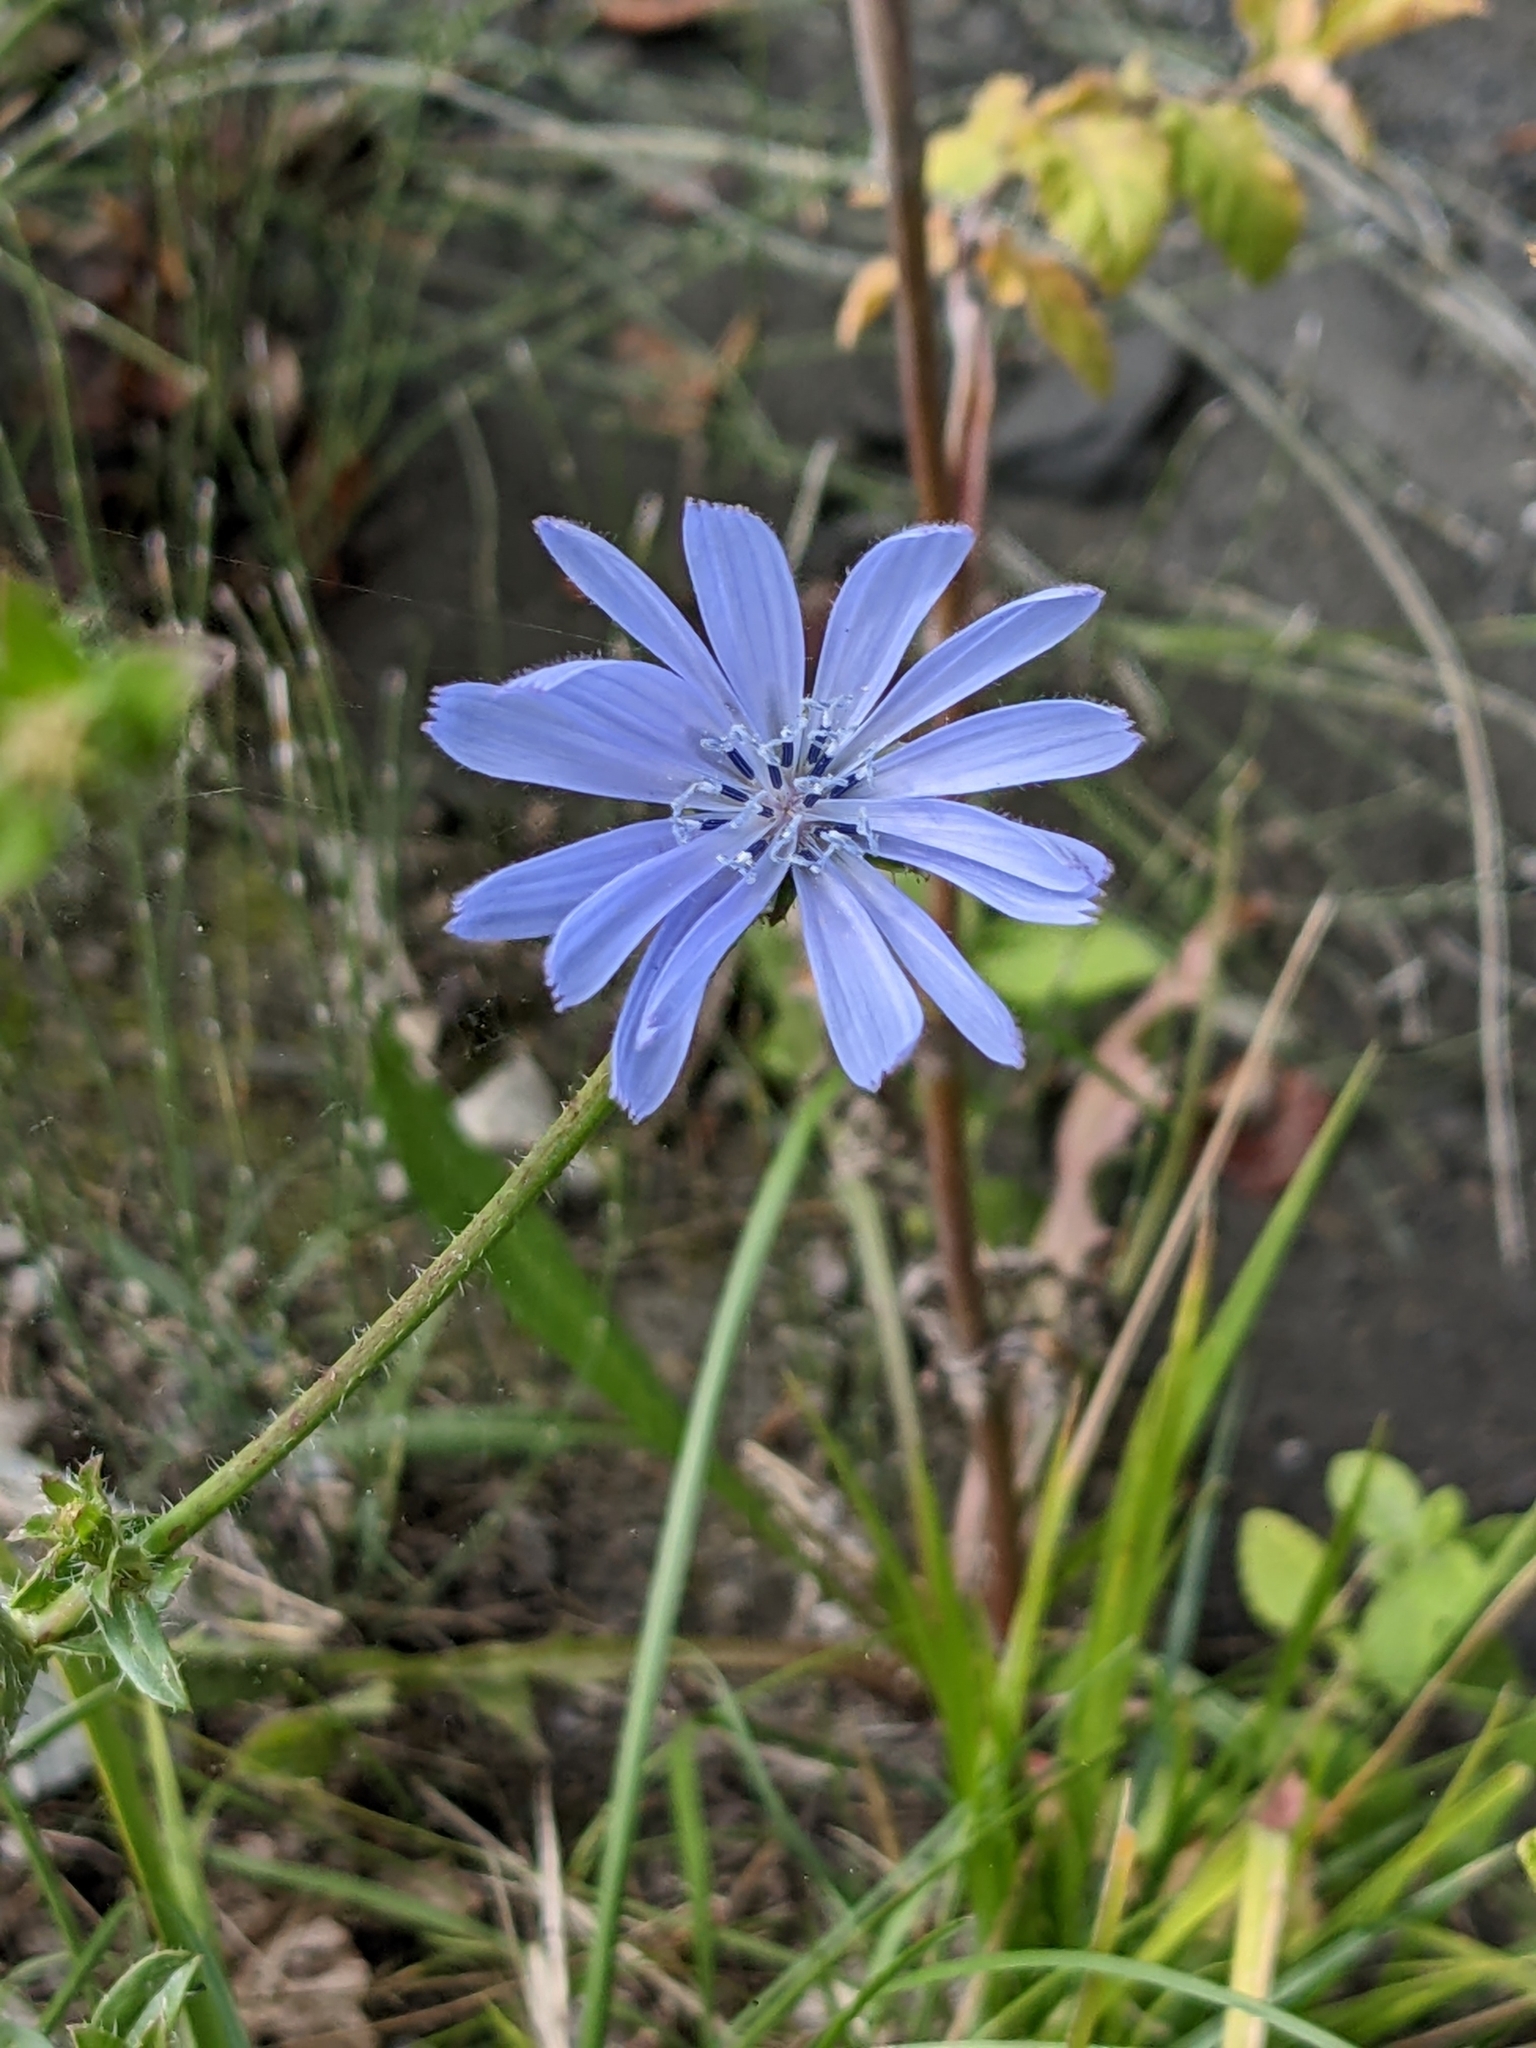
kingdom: Plantae
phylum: Tracheophyta
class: Magnoliopsida
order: Asterales
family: Asteraceae
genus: Cichorium
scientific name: Cichorium intybus
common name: Chicory
